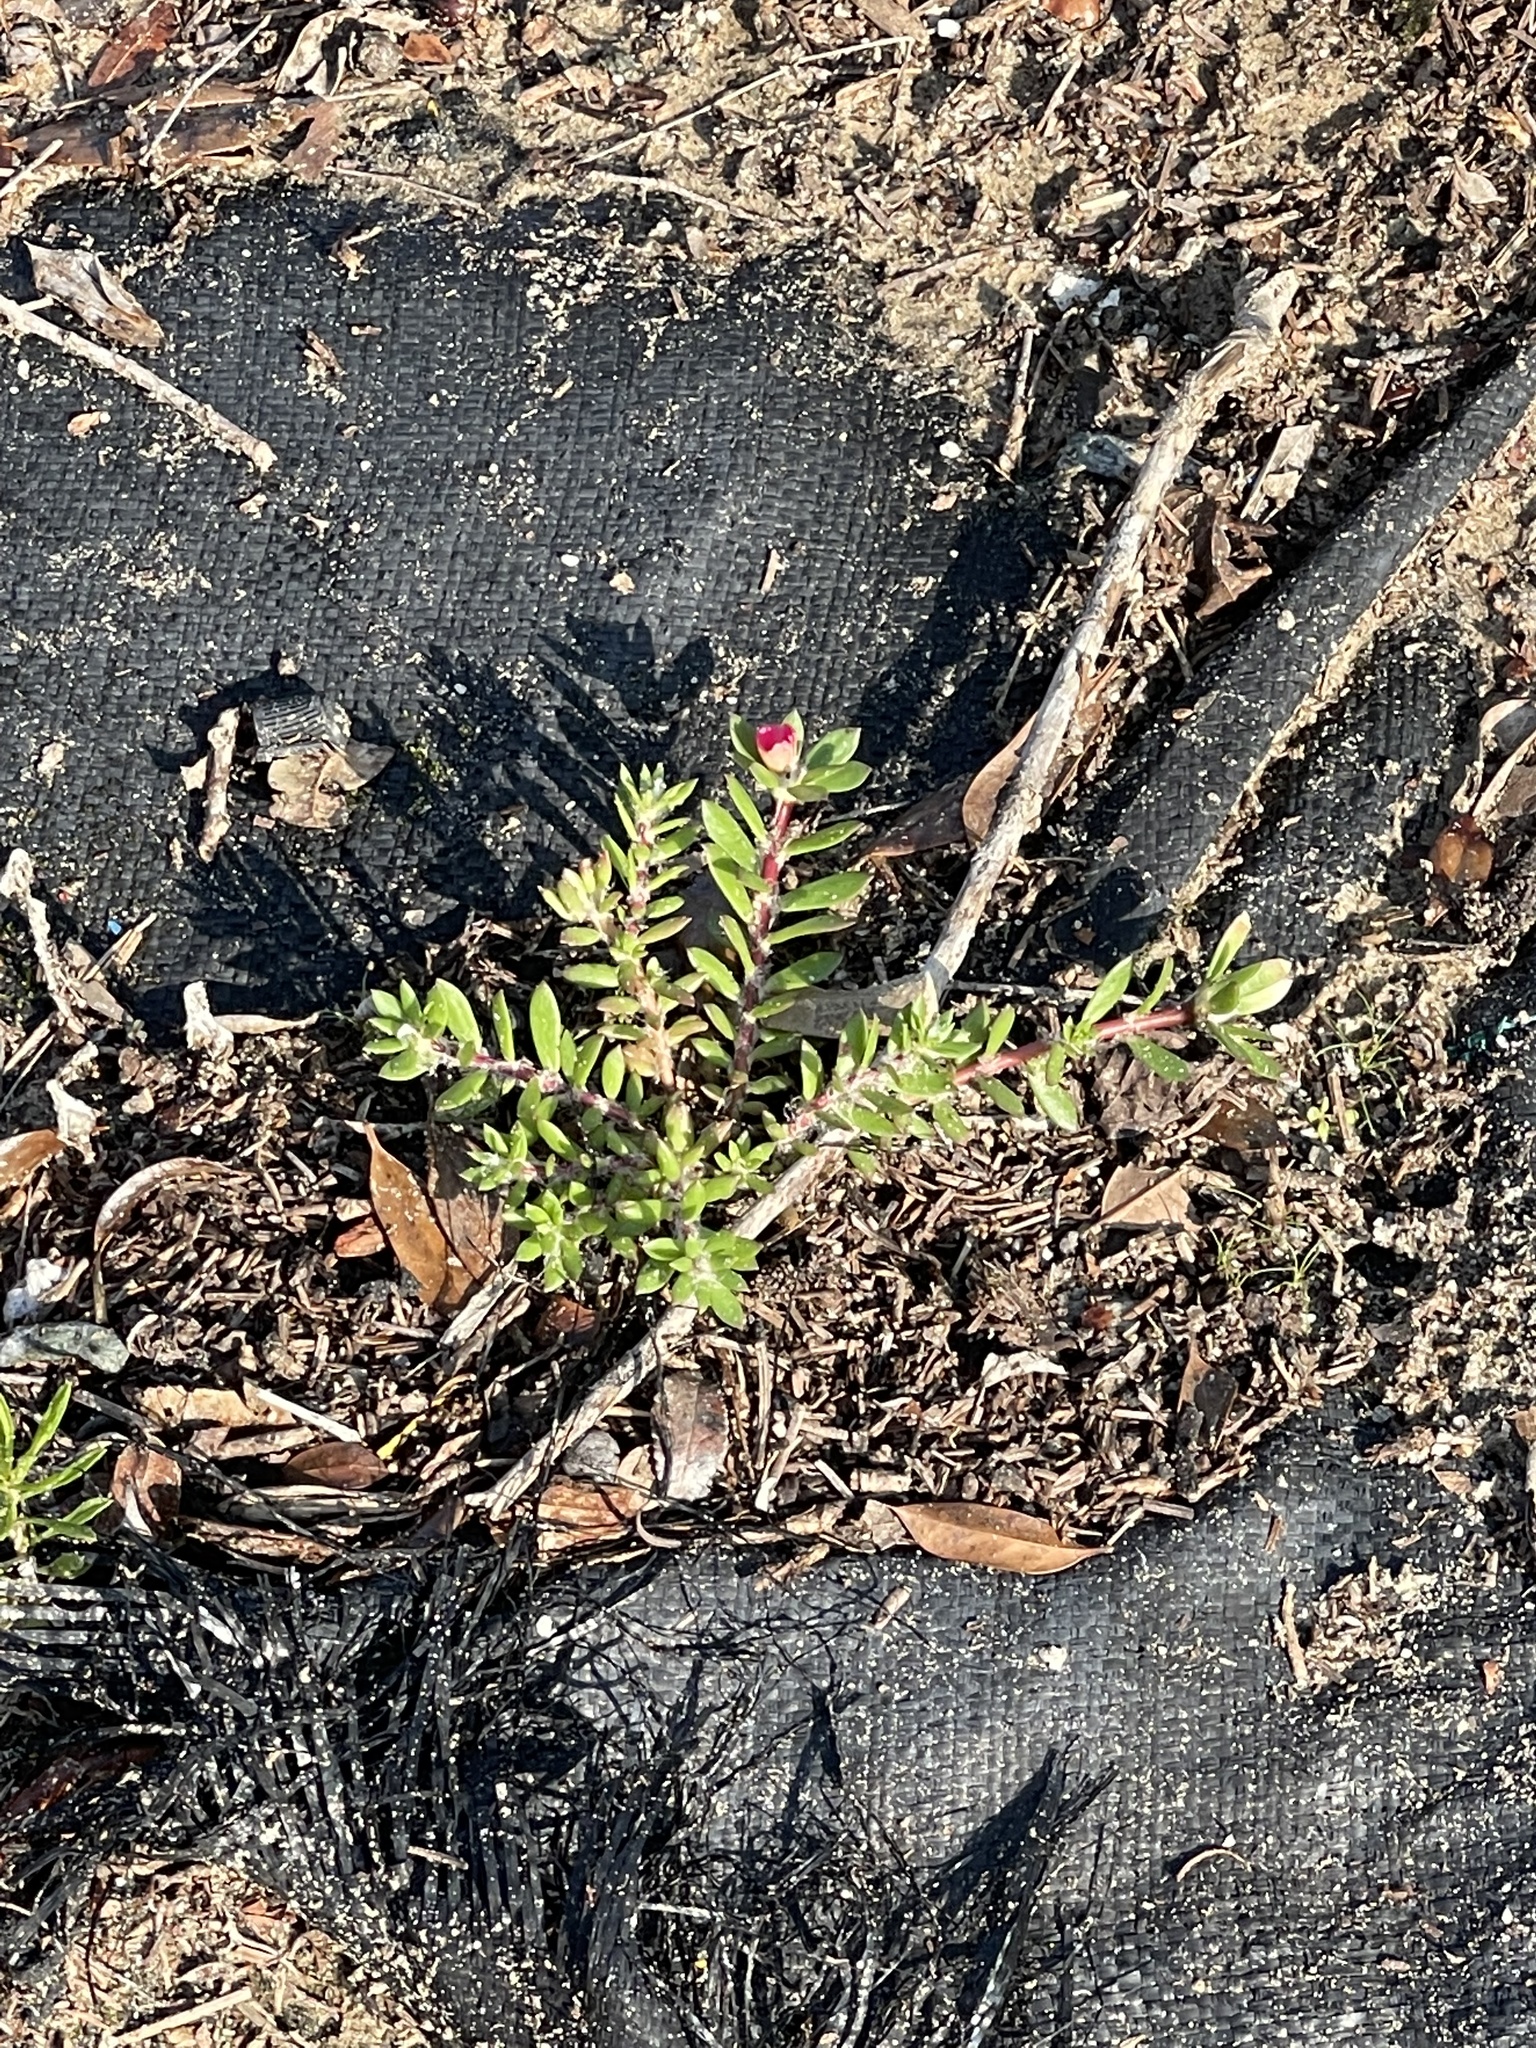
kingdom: Plantae
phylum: Tracheophyta
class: Magnoliopsida
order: Caryophyllales
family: Portulacaceae
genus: Portulaca
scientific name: Portulaca amilis
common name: Paraguayan purslane
